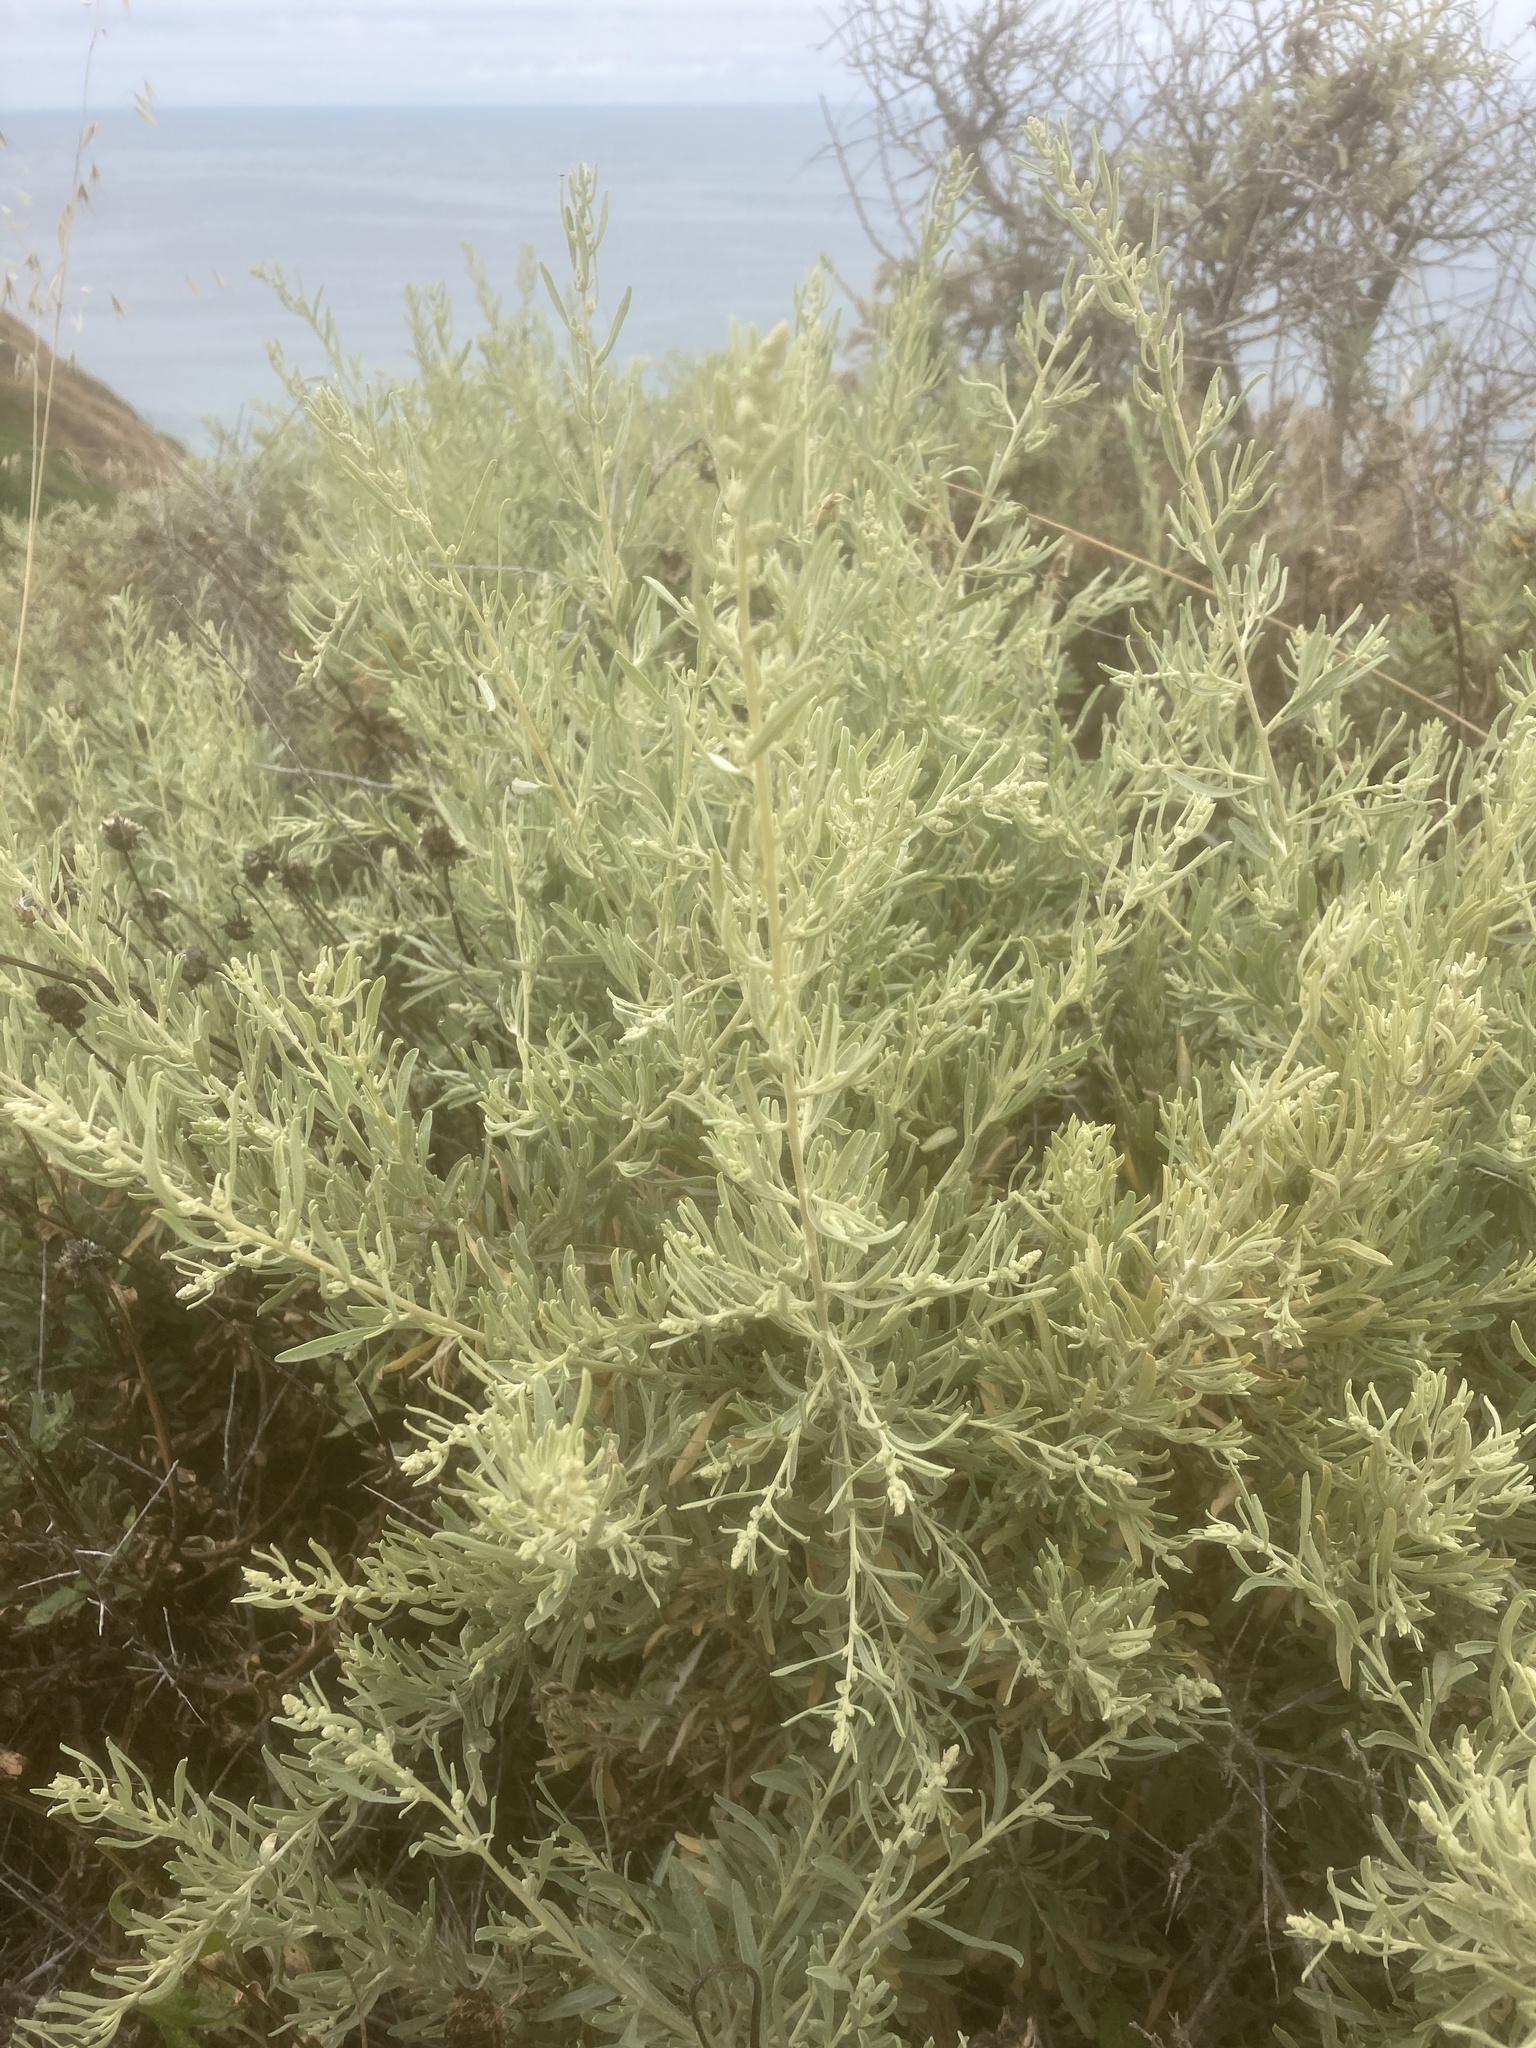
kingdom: Plantae
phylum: Tracheophyta
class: Magnoliopsida
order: Caryophyllales
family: Amaranthaceae
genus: Atriplex
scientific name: Atriplex canescens
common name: Four-wing saltbush
